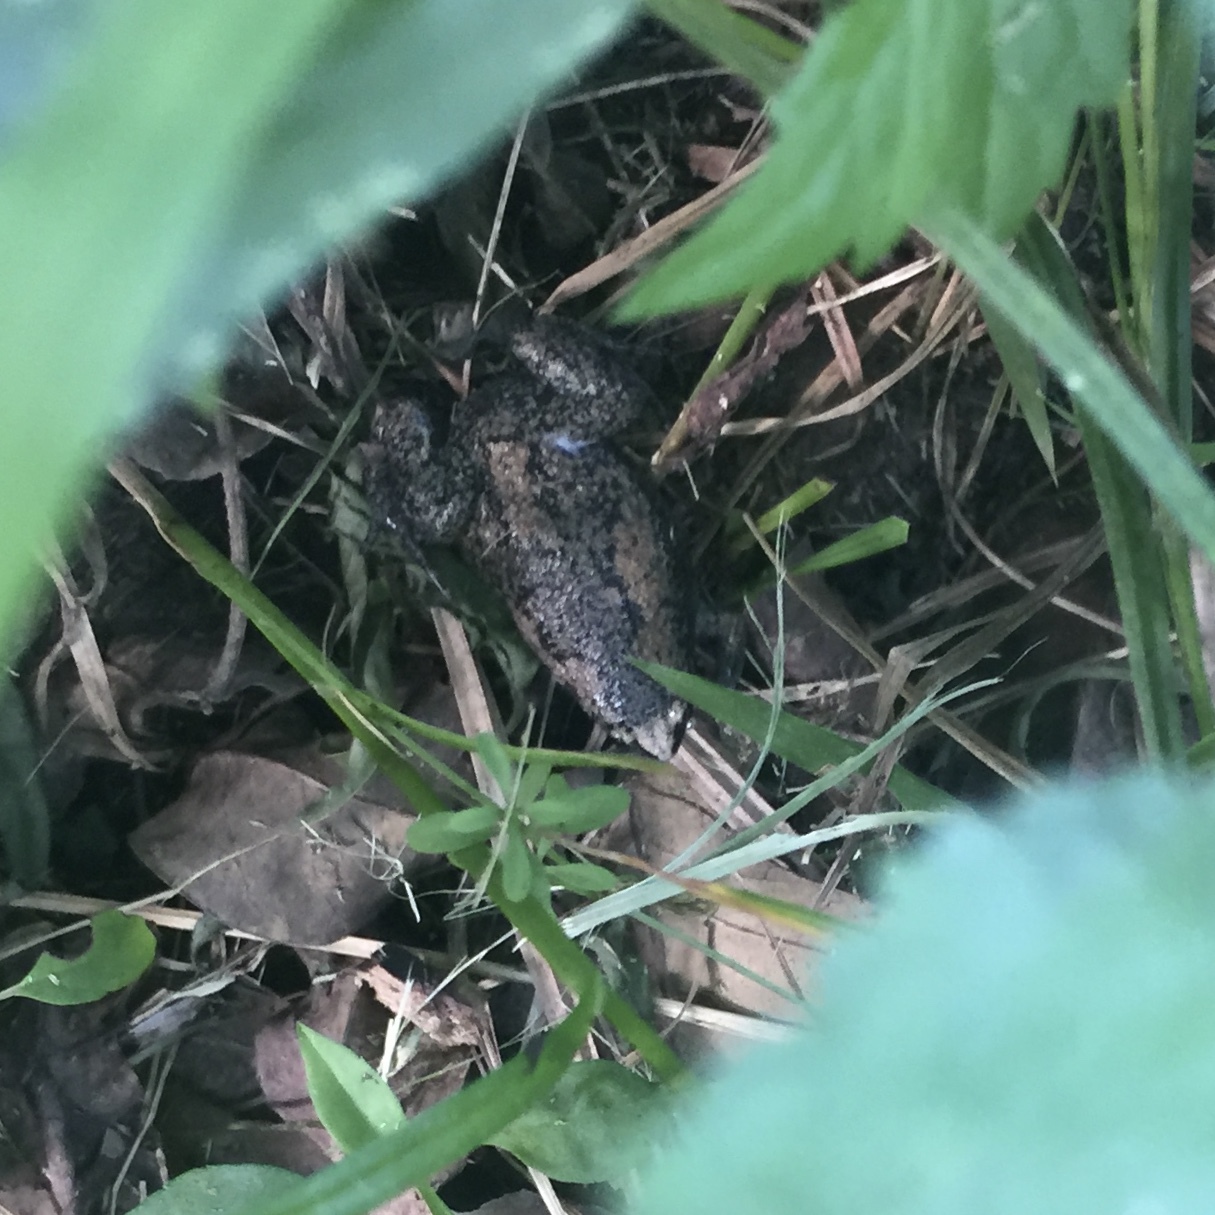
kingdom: Animalia
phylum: Chordata
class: Amphibia
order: Anura
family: Microhylidae
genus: Gastrophryne
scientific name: Gastrophryne carolinensis
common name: Eastern narrowmouth toad
